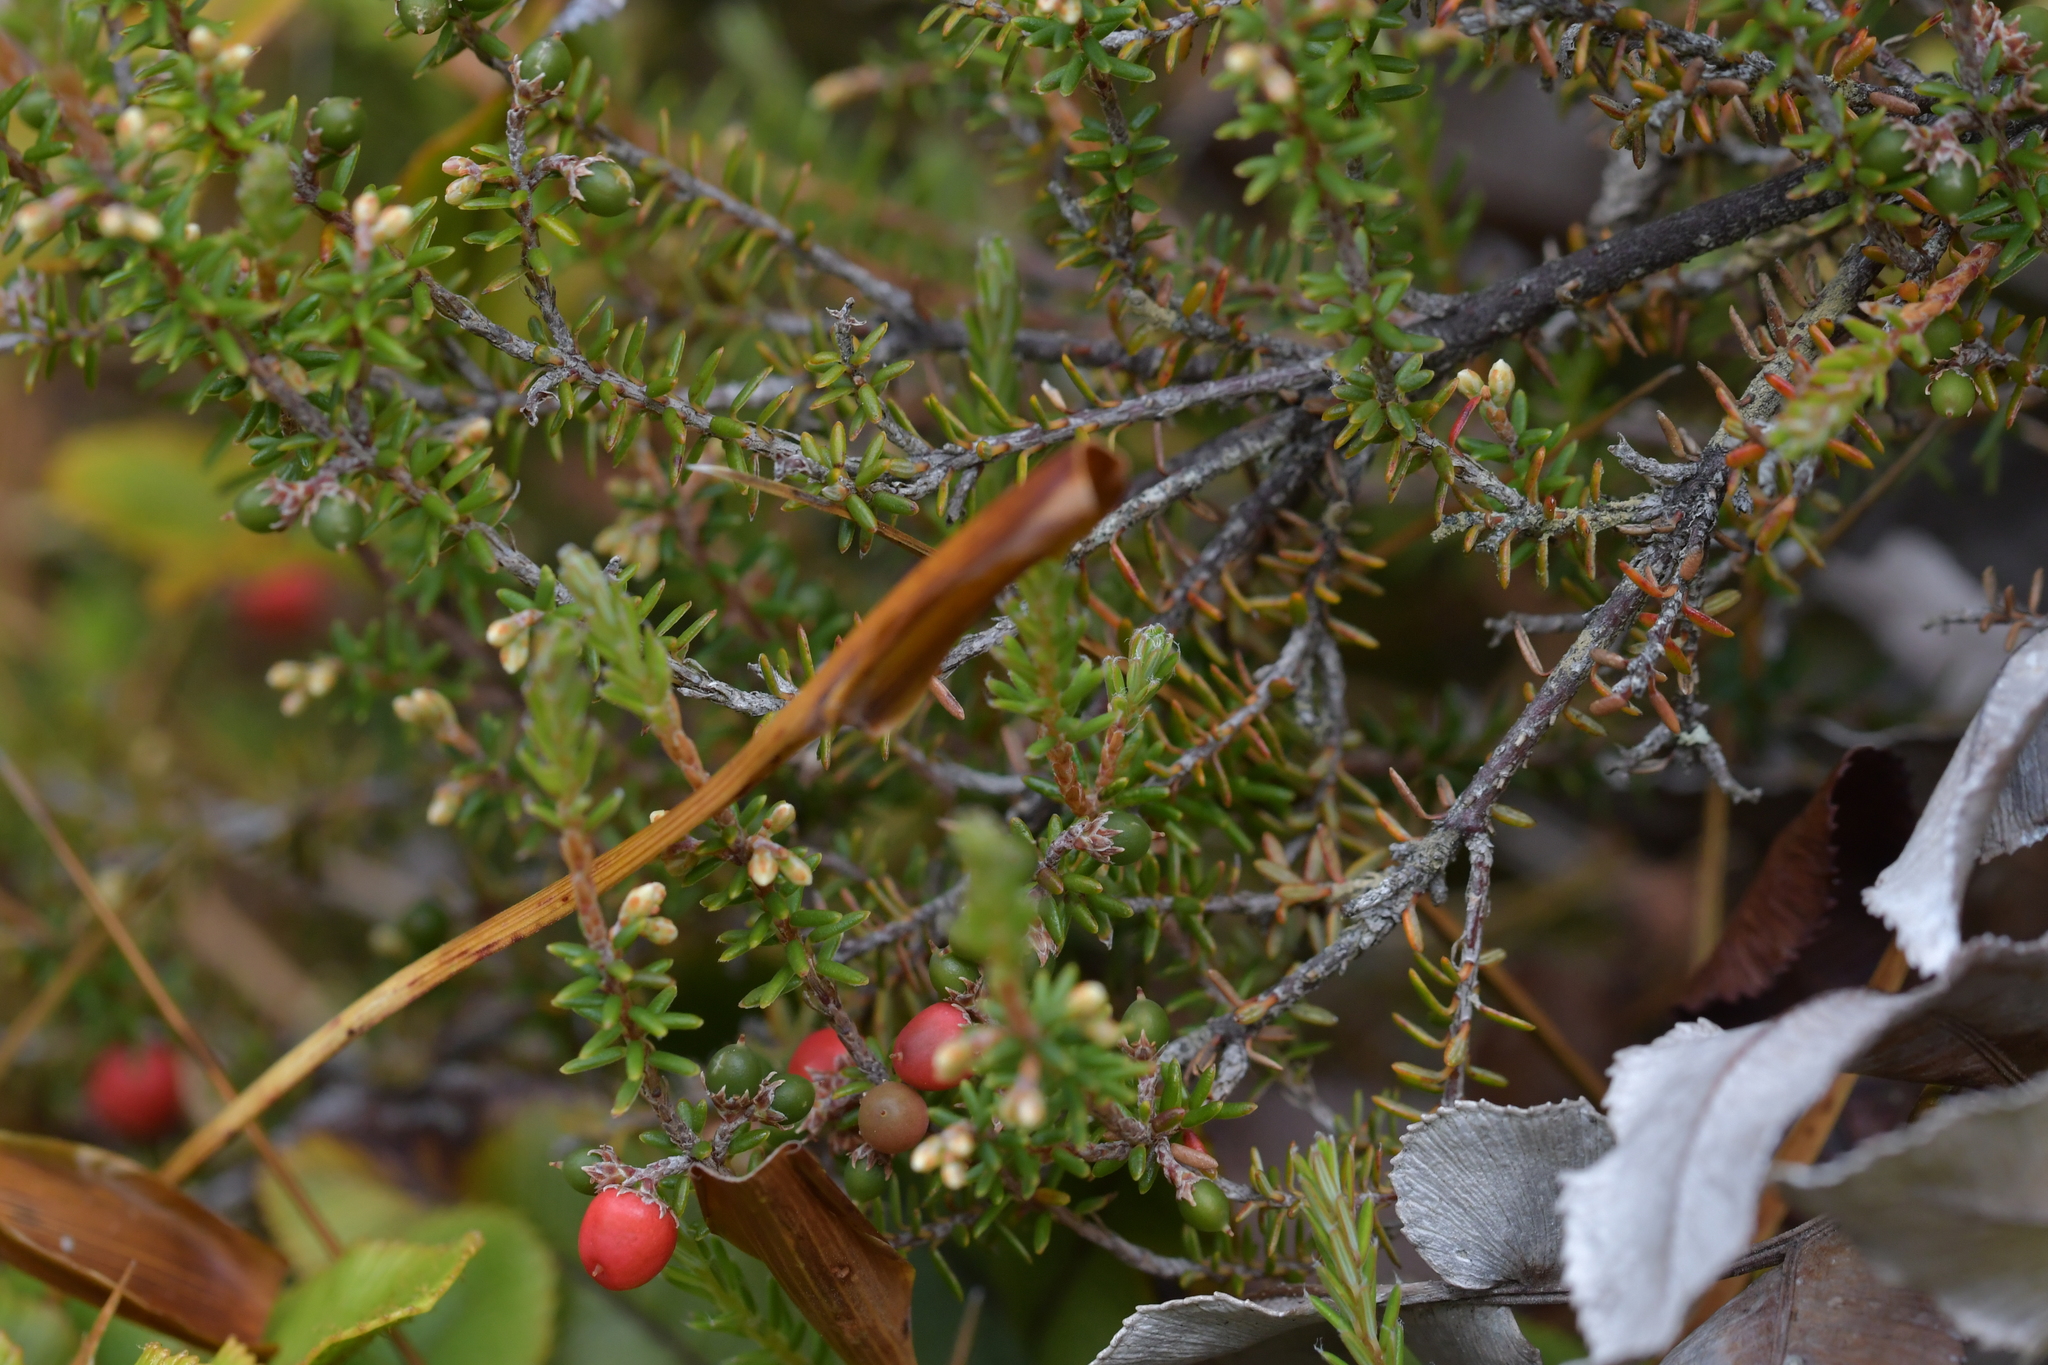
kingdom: Plantae
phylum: Tracheophyta
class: Magnoliopsida
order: Ericales
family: Ericaceae
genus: Androstoma
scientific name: Androstoma empetrifolia
